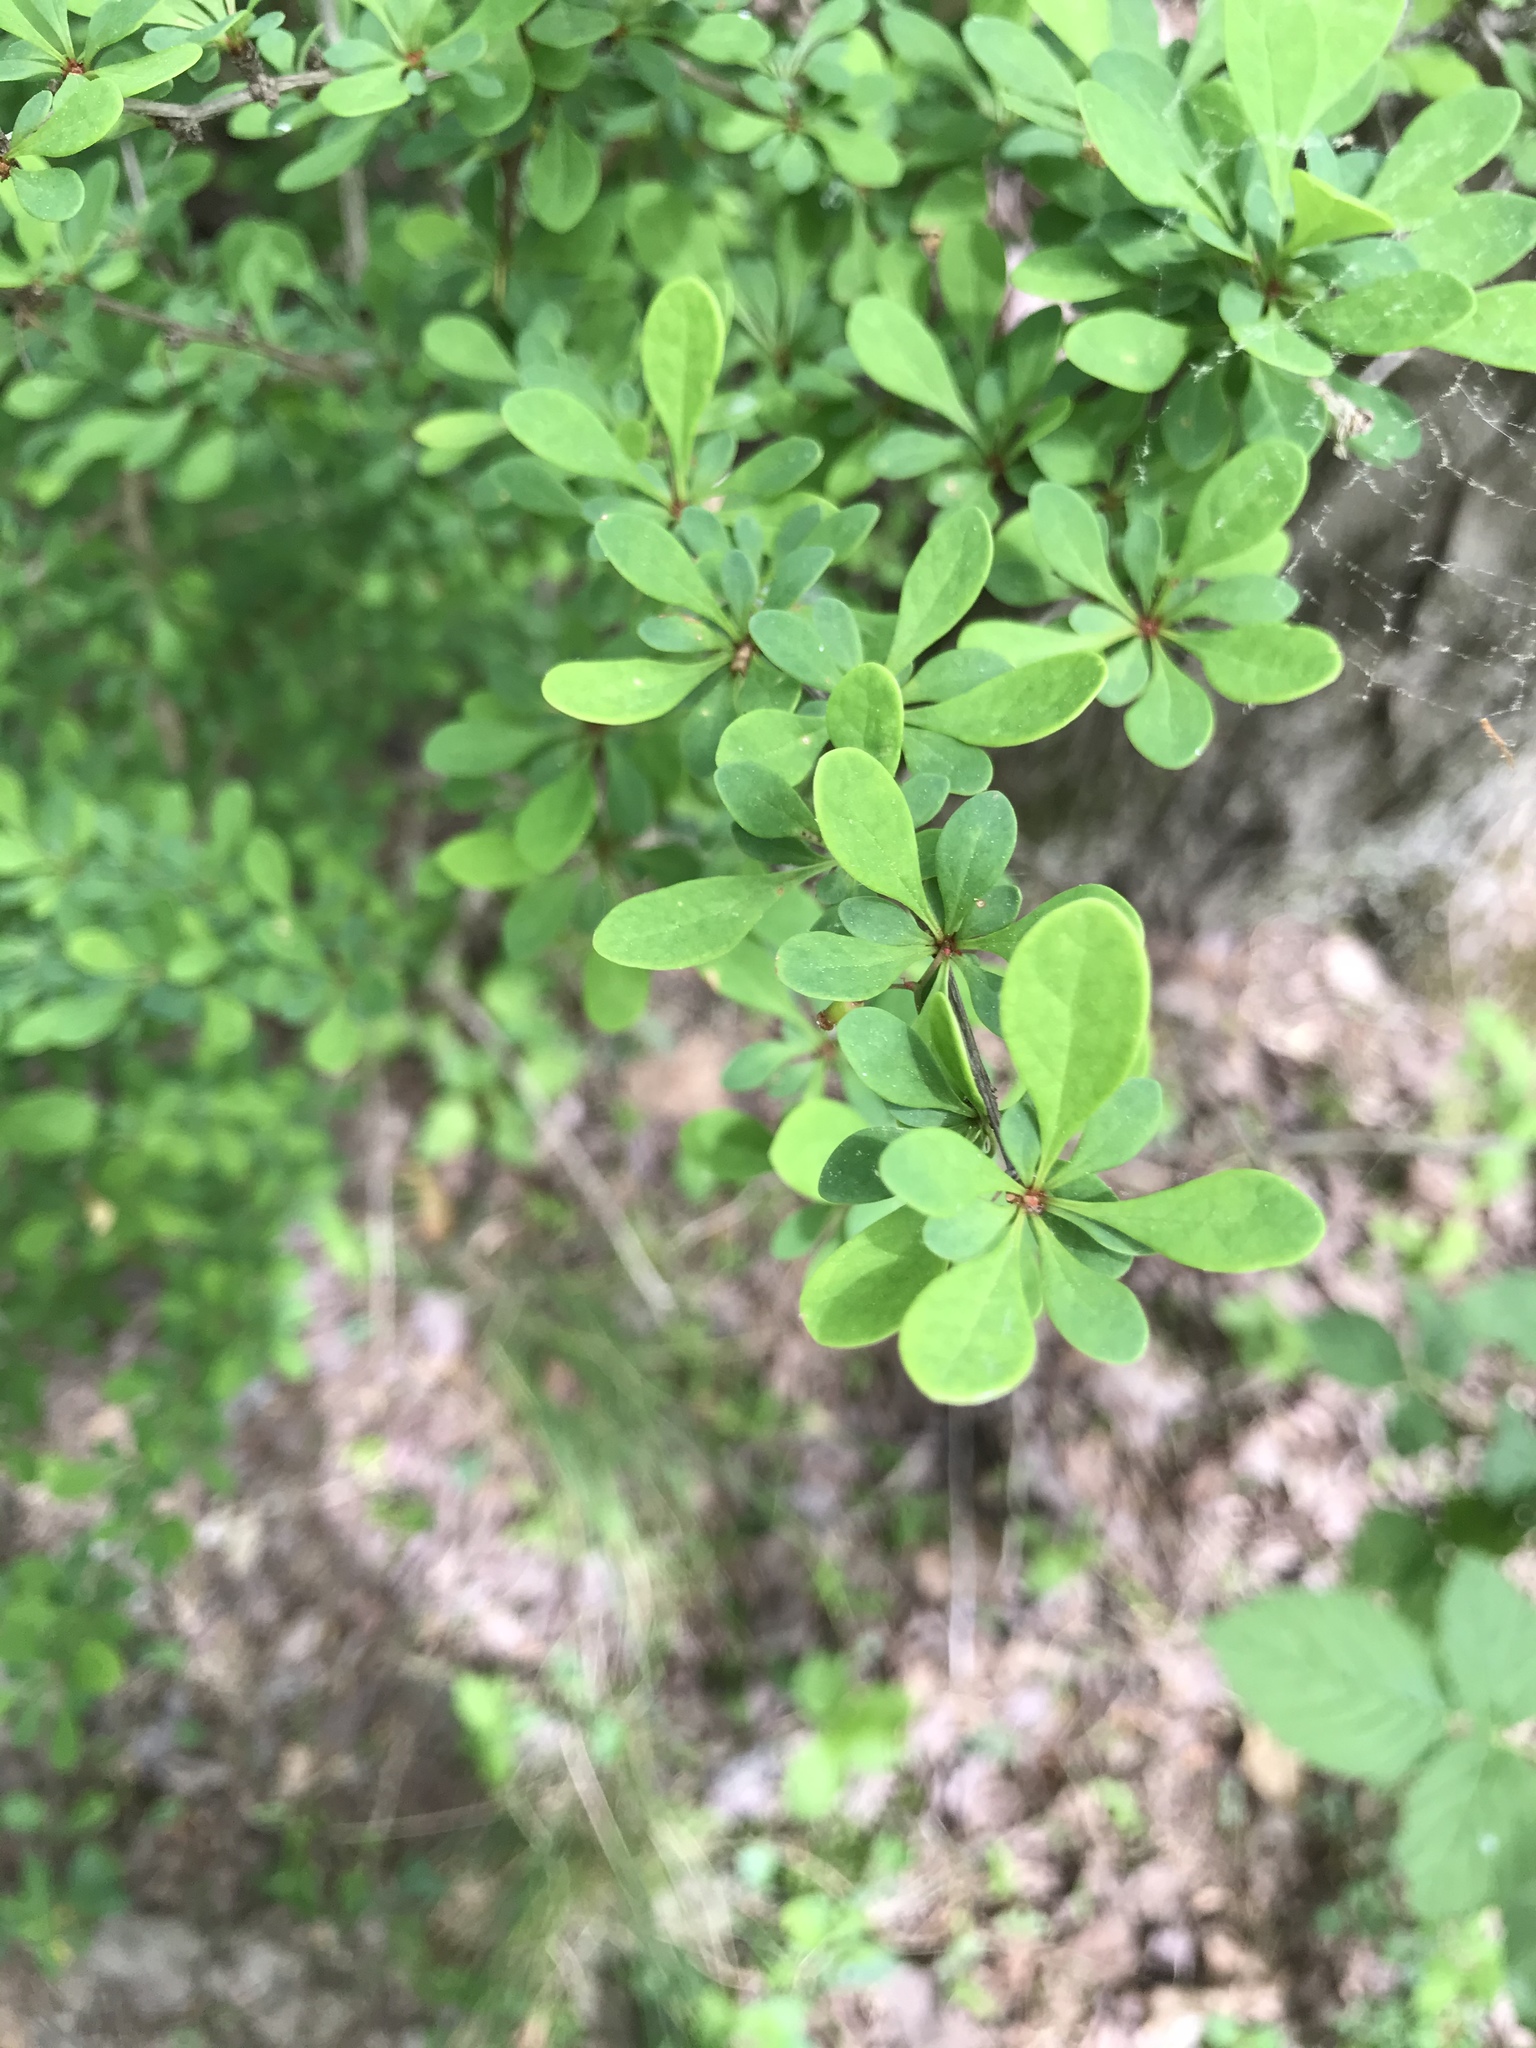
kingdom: Plantae
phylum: Tracheophyta
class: Magnoliopsida
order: Ranunculales
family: Berberidaceae
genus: Berberis
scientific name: Berberis thunbergii
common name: Japanese barberry
